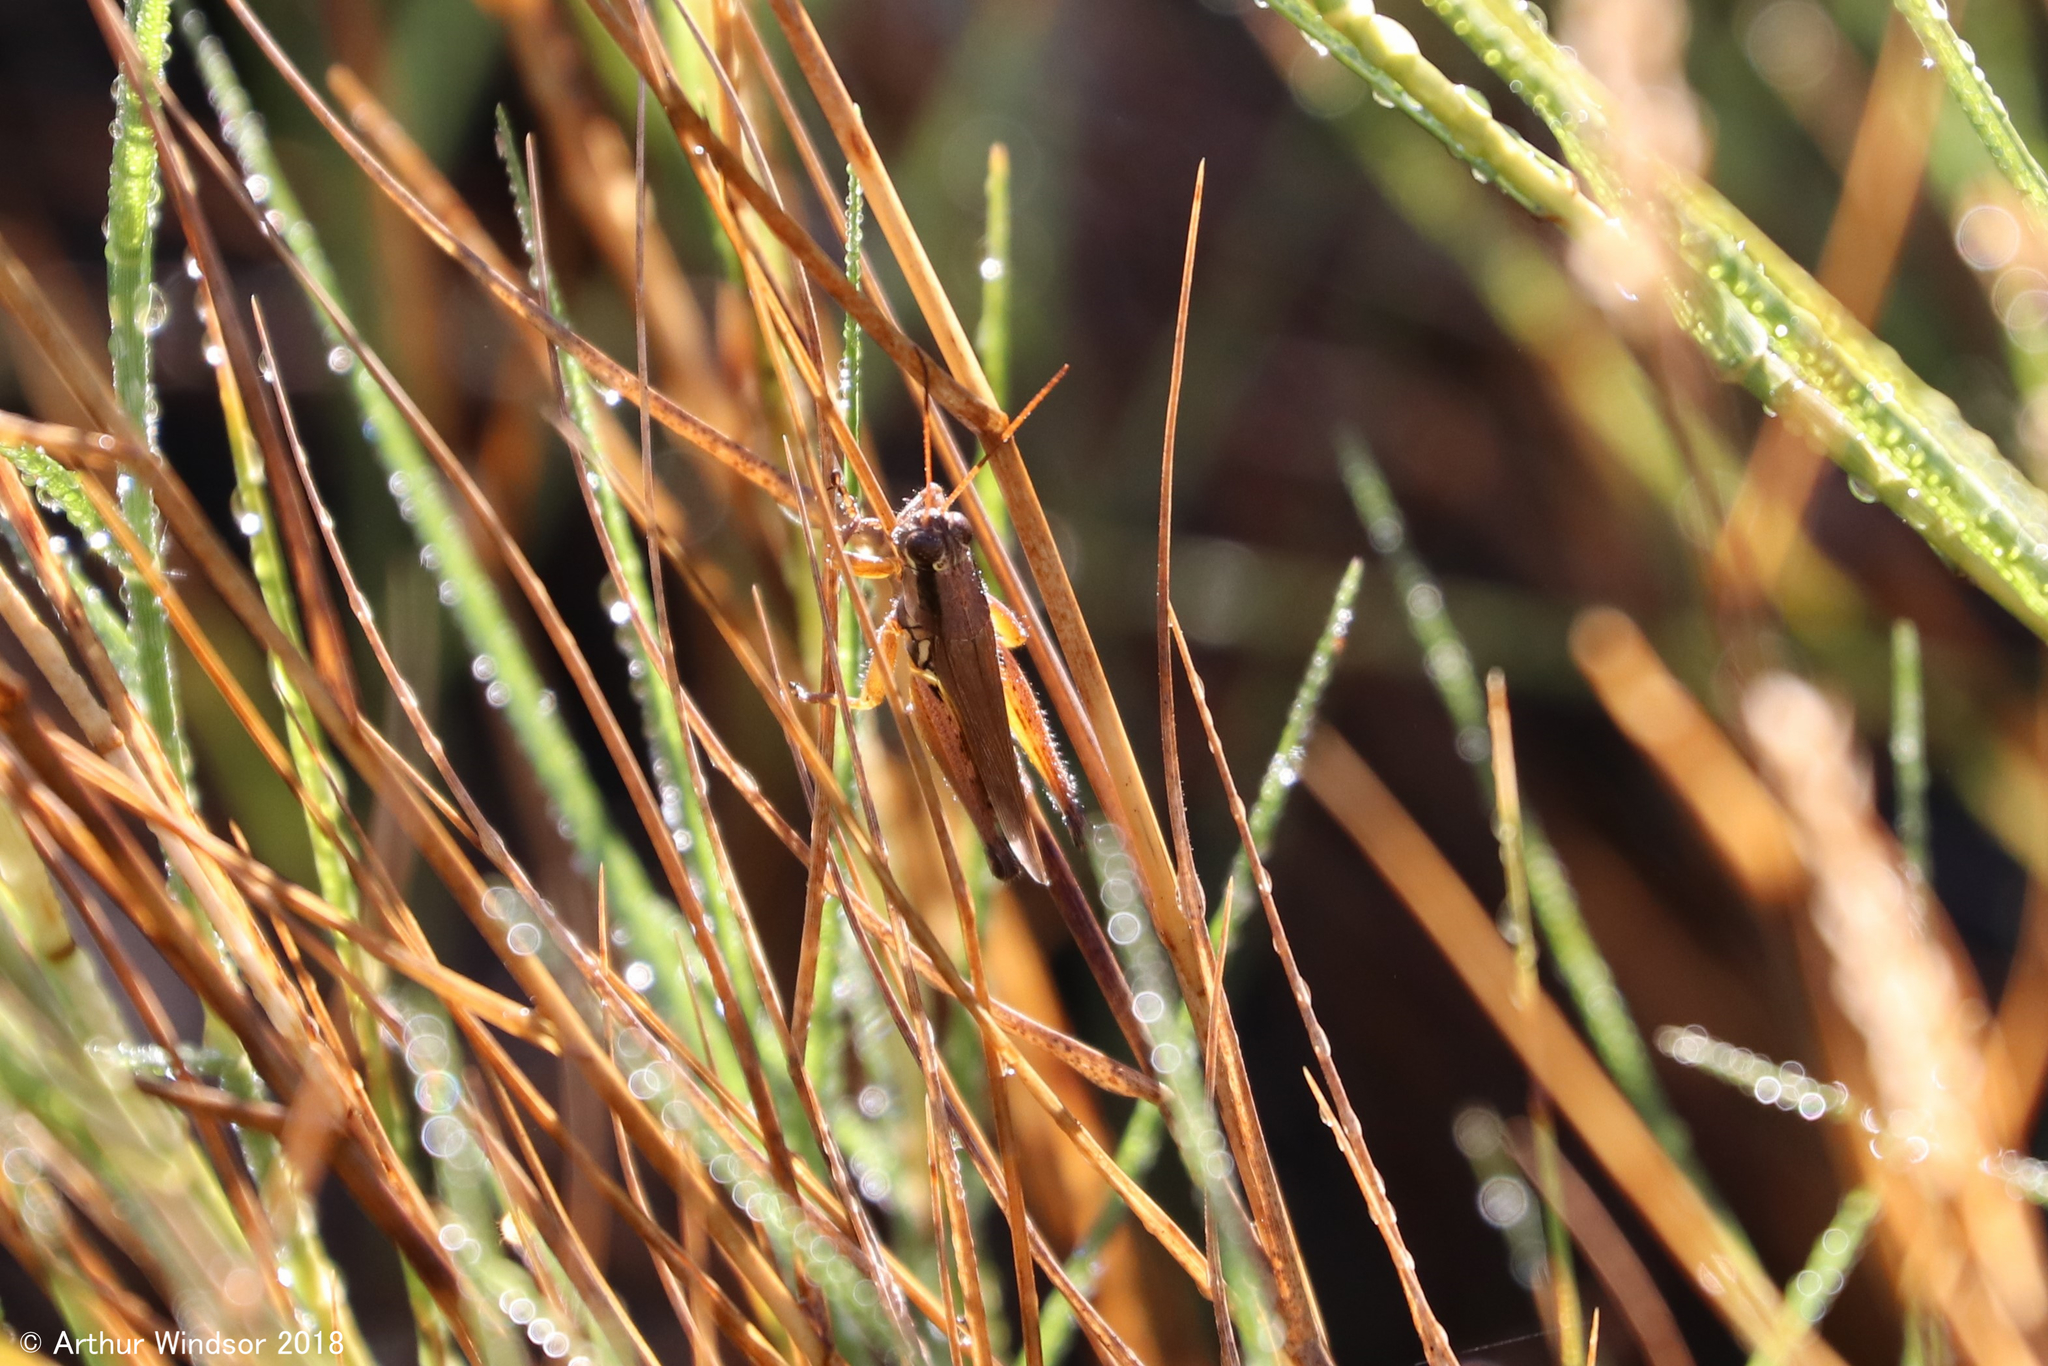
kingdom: Animalia
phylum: Arthropoda
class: Insecta
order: Orthoptera
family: Acrididae
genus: Paroxya
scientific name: Paroxya atlantica
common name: Atlantic grasshopper
